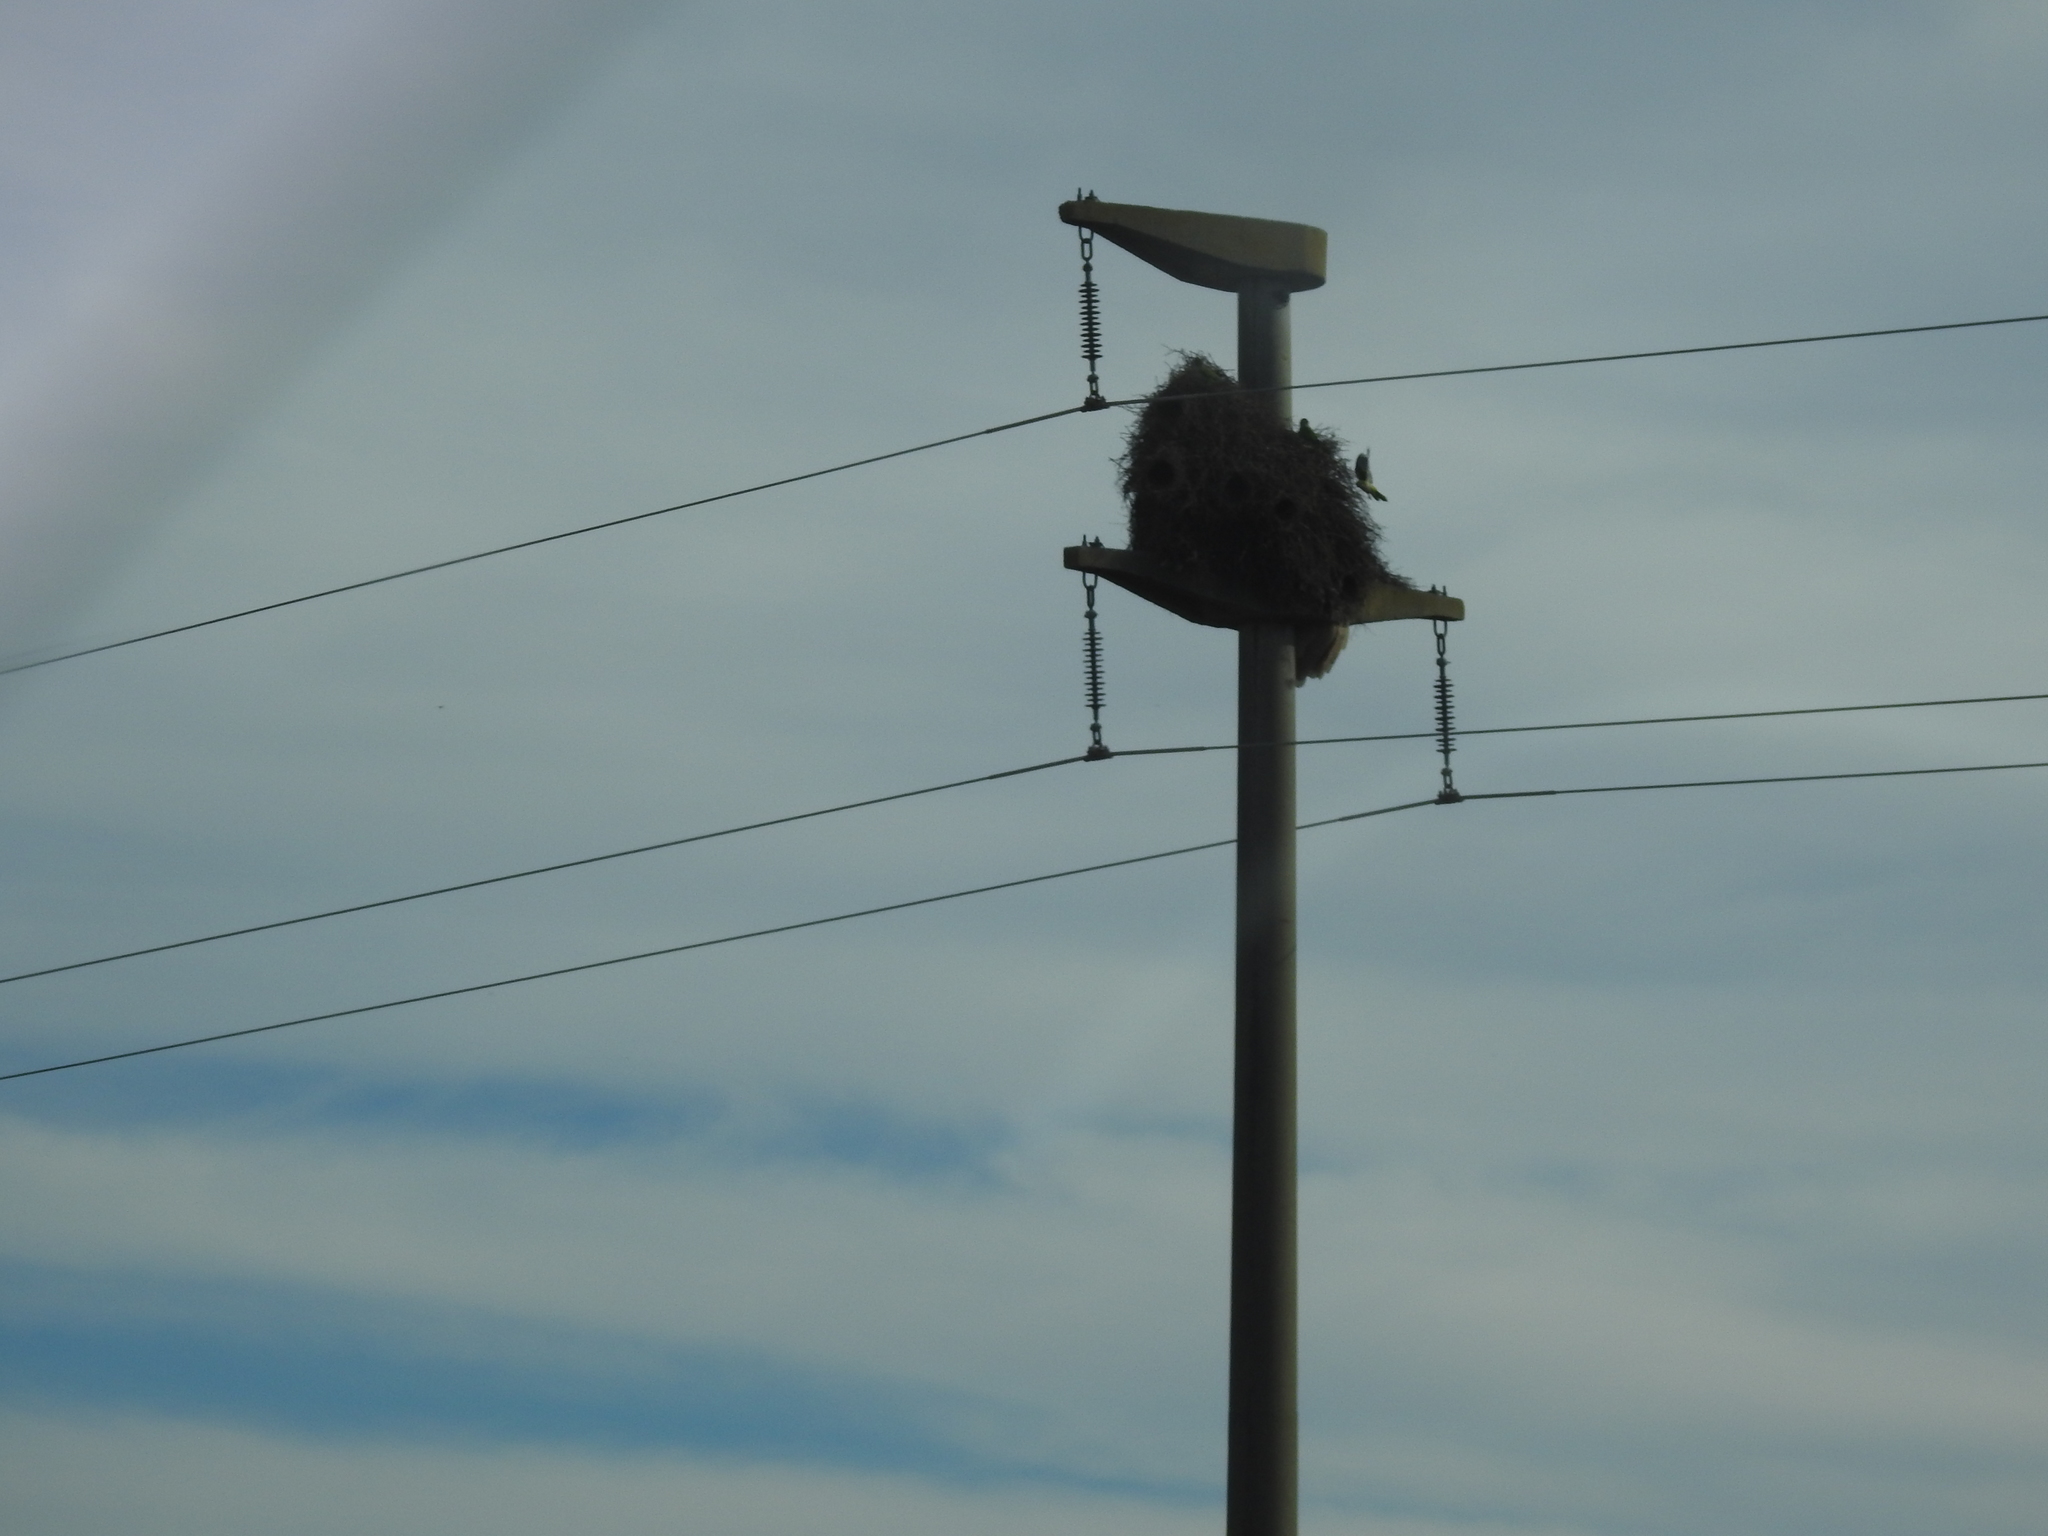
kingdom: Animalia
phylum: Chordata
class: Aves
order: Psittaciformes
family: Psittacidae
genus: Myiopsitta
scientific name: Myiopsitta monachus
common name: Monk parakeet
